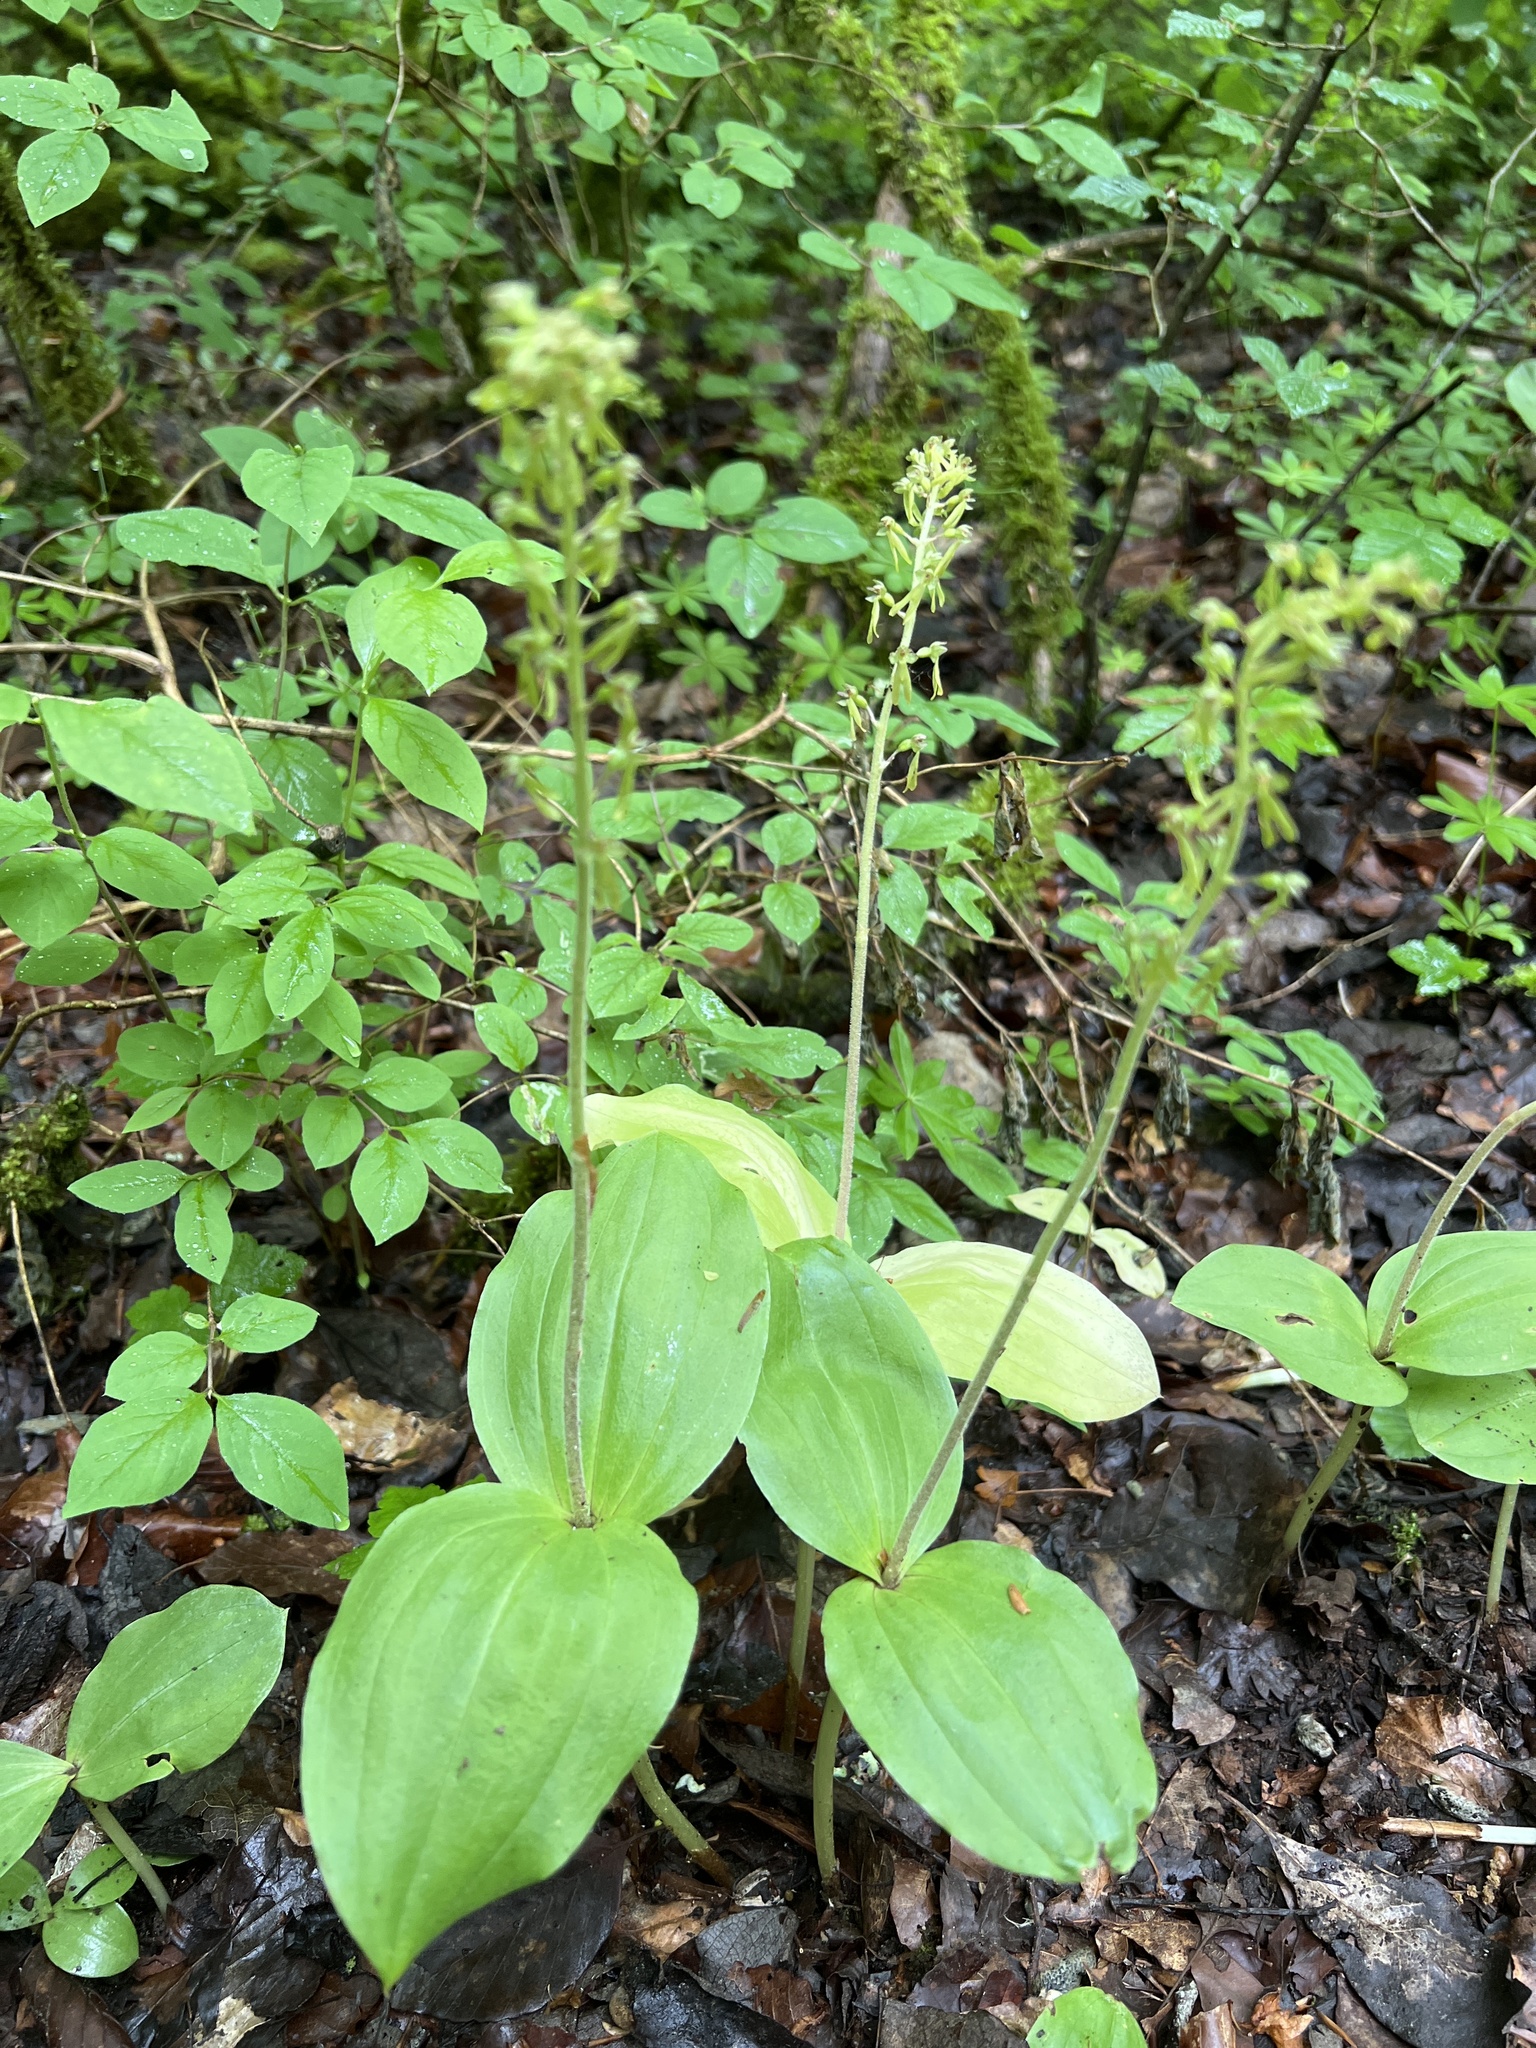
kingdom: Plantae
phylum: Tracheophyta
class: Liliopsida
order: Asparagales
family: Orchidaceae
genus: Neottia
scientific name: Neottia ovata
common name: Common twayblade
